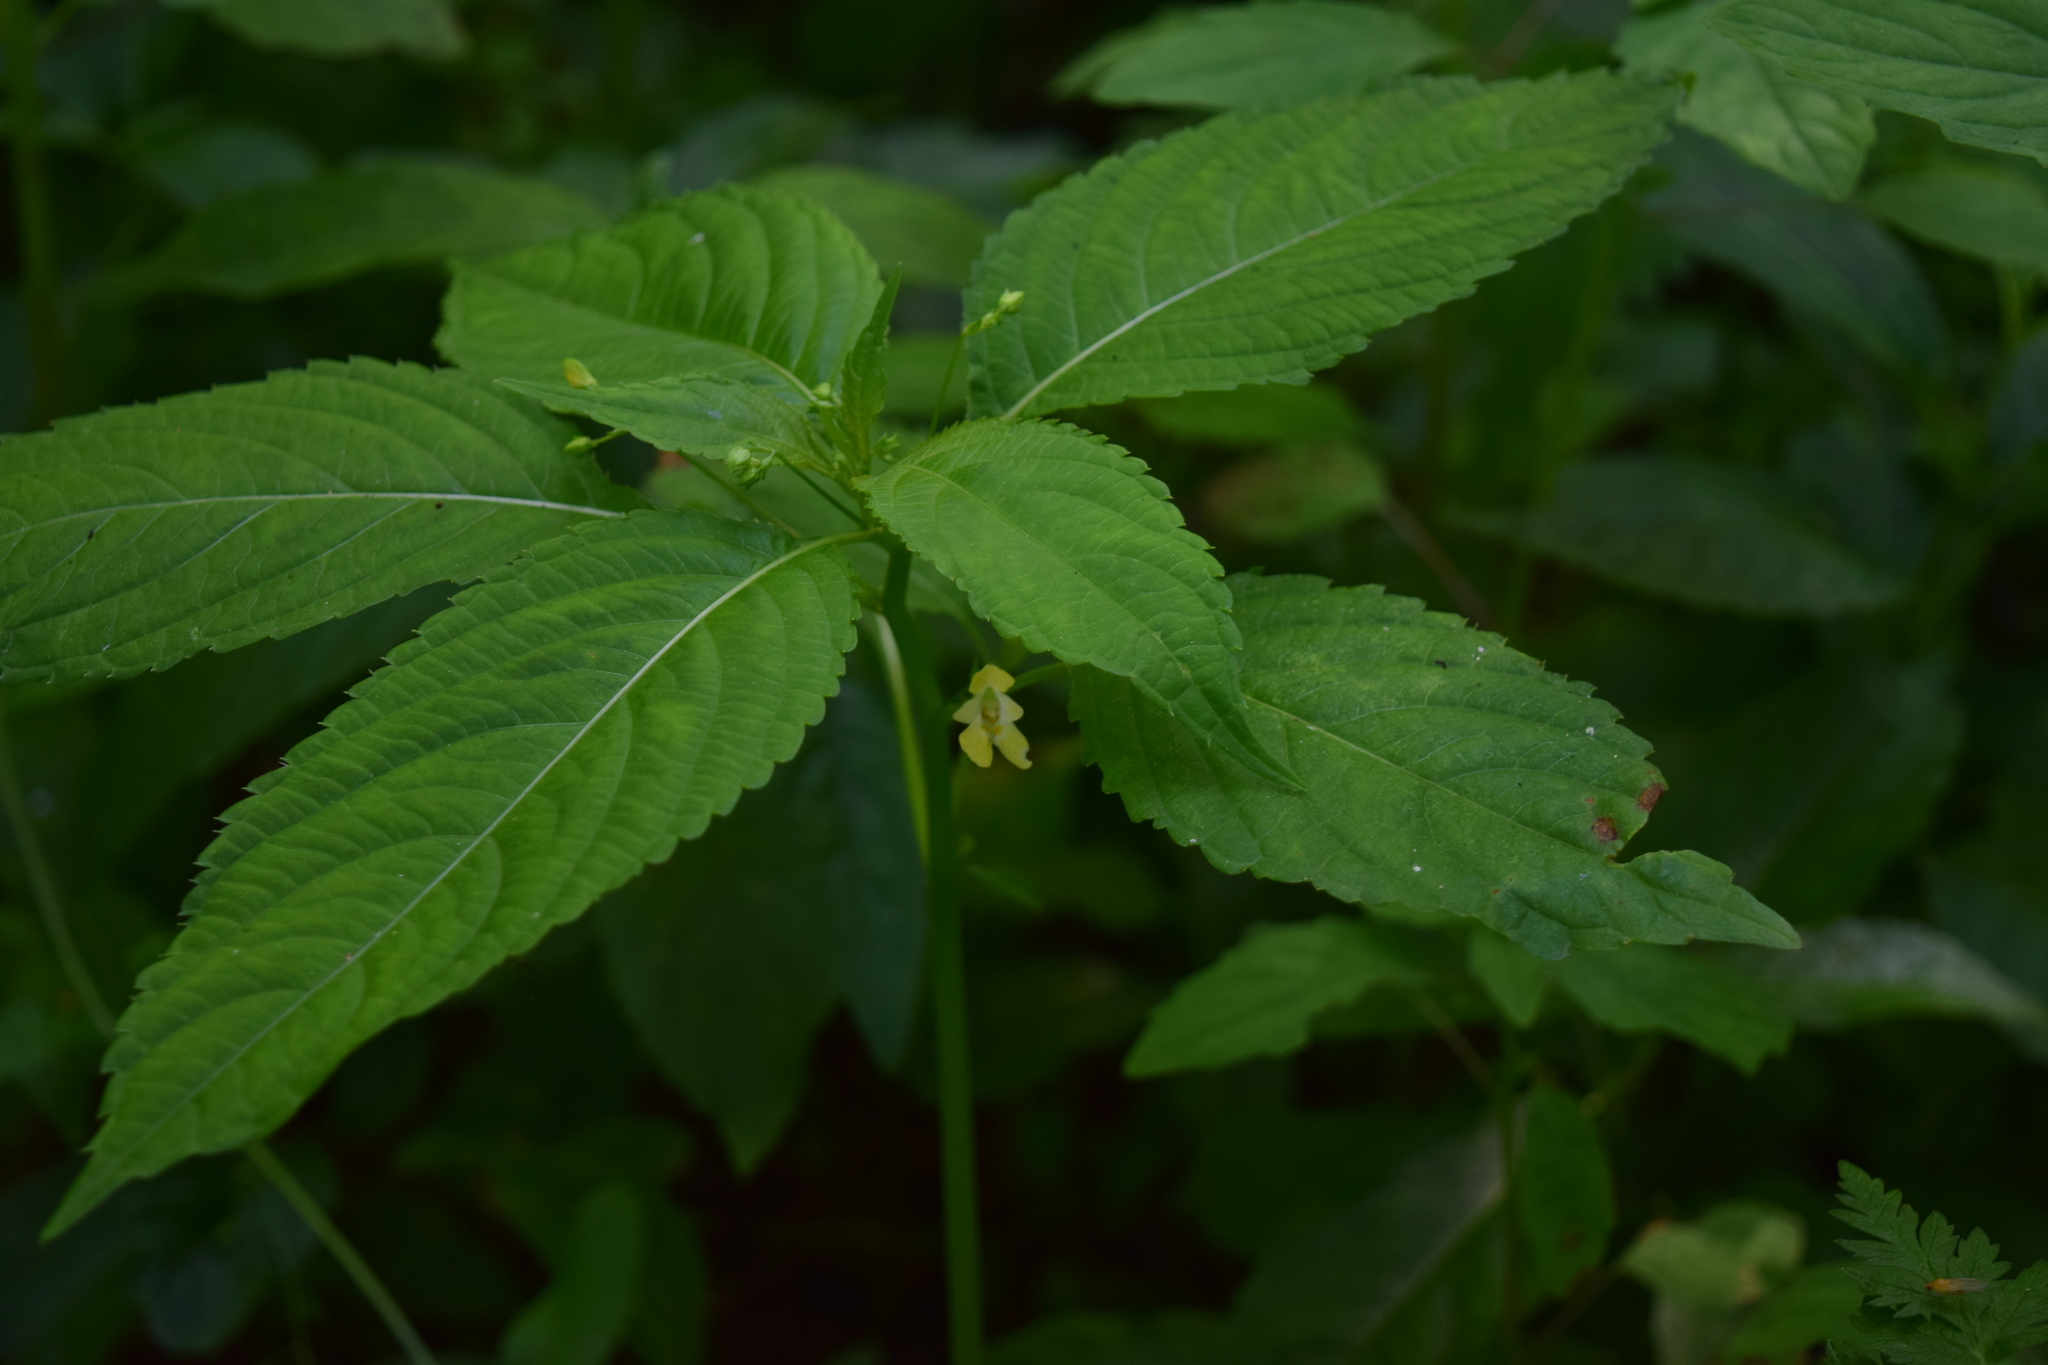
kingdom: Plantae
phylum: Tracheophyta
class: Magnoliopsida
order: Ericales
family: Balsaminaceae
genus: Impatiens
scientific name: Impatiens parviflora
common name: Small balsam
